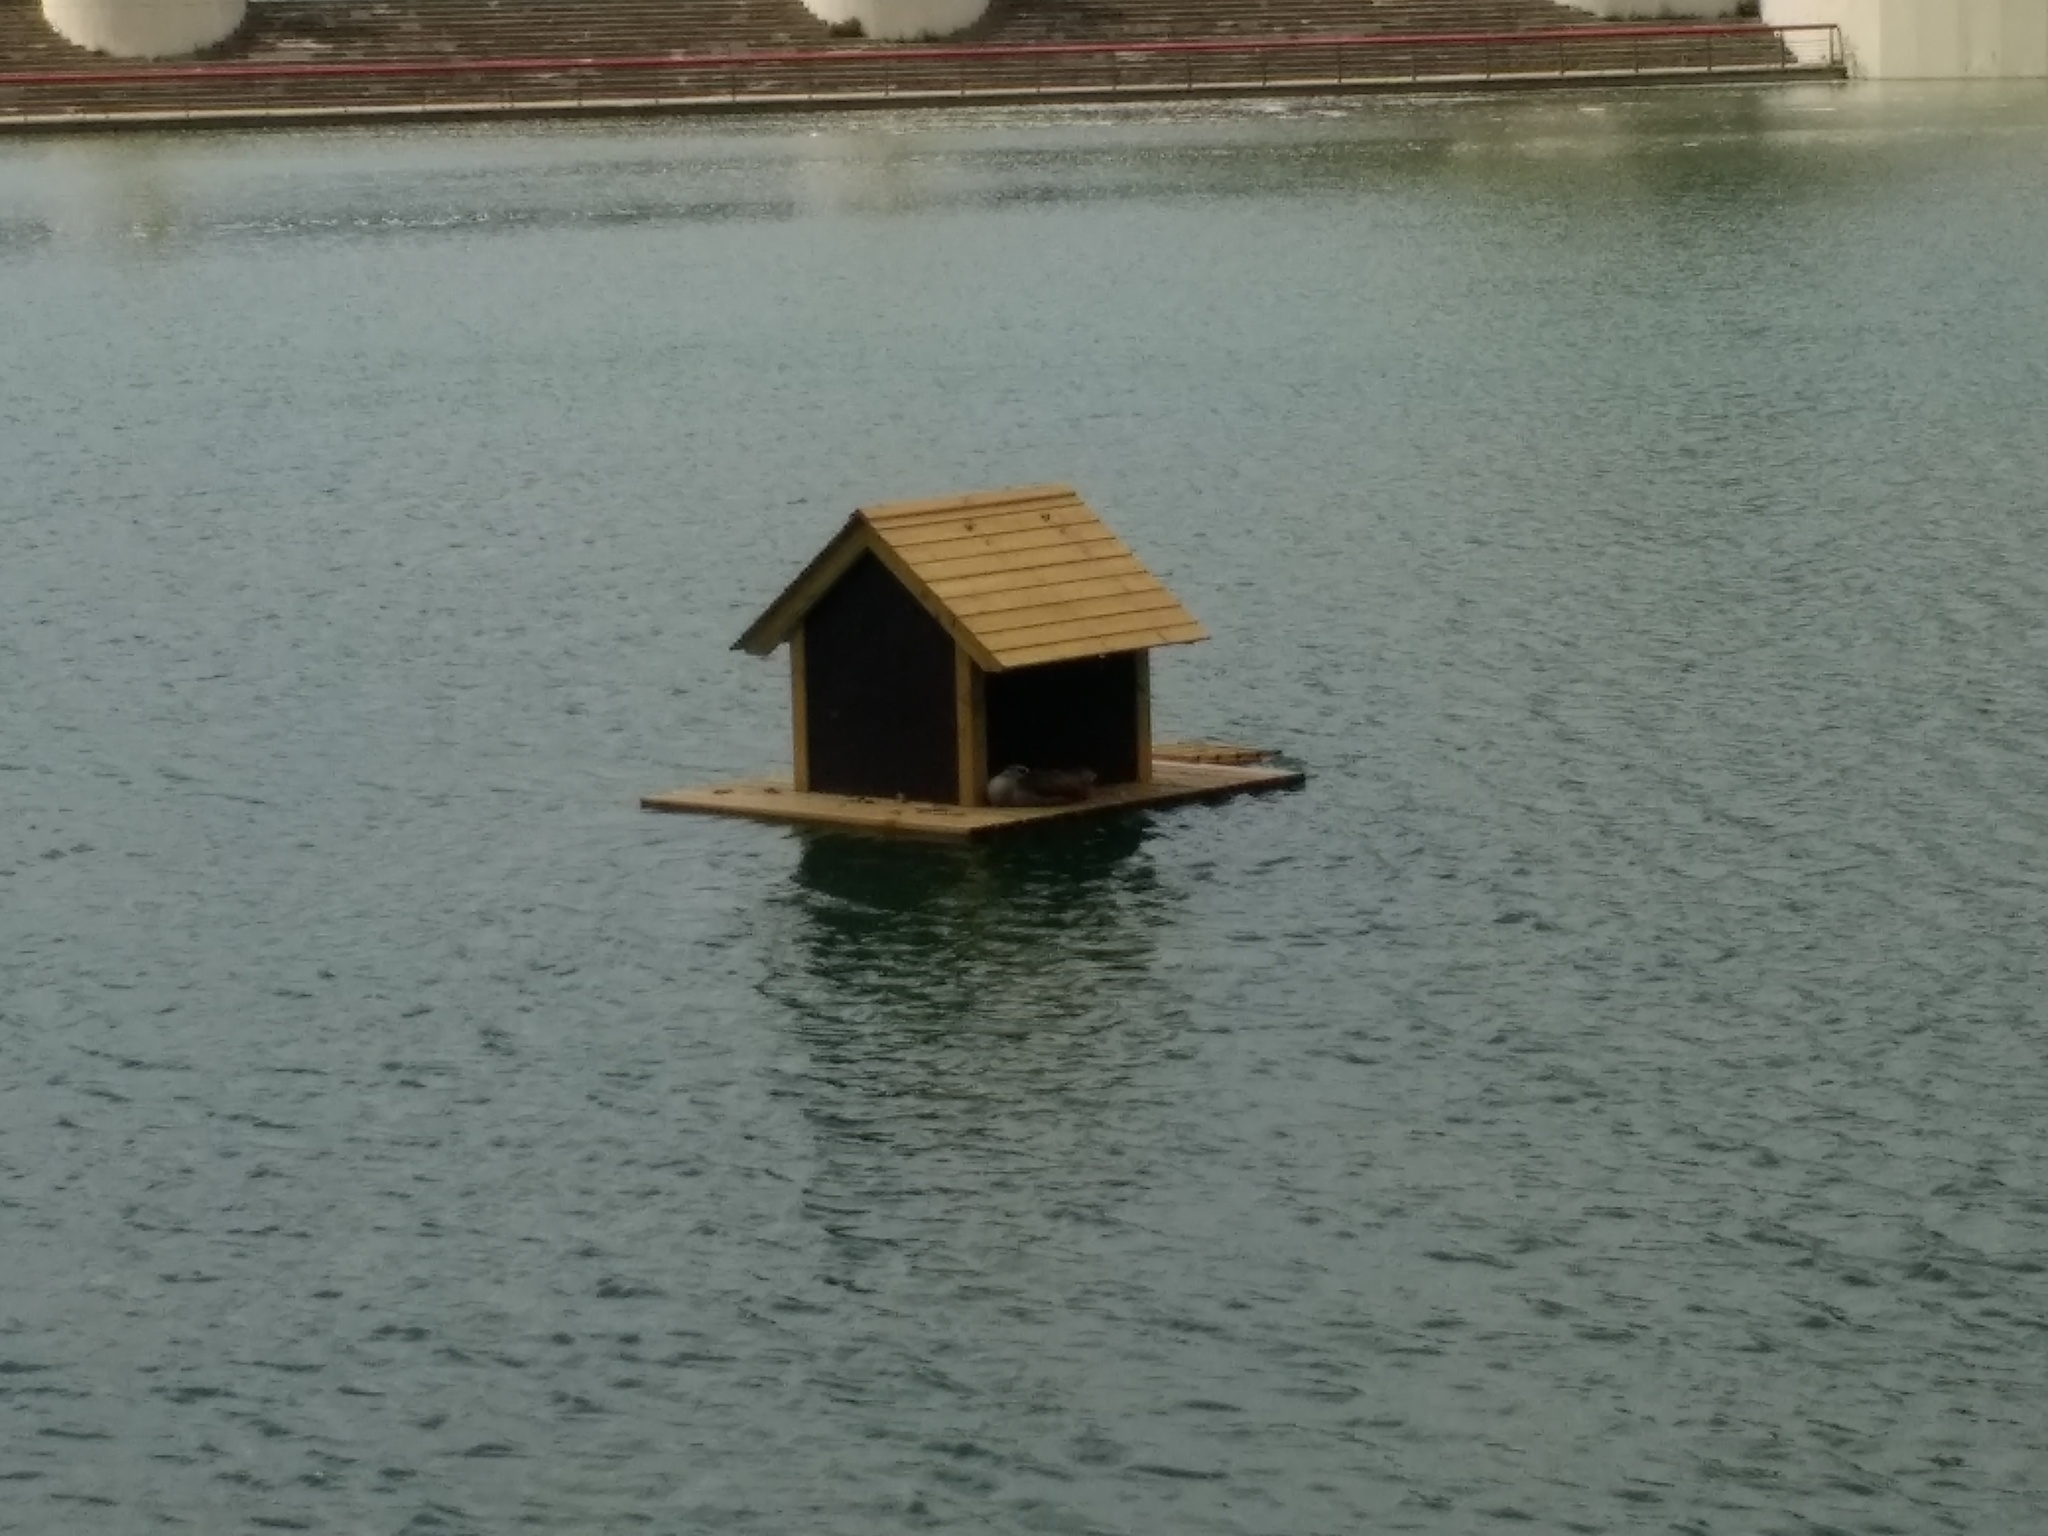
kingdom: Animalia
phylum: Chordata
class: Aves
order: Anseriformes
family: Anatidae
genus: Alopochen
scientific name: Alopochen aegyptiaca
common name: Egyptian goose
